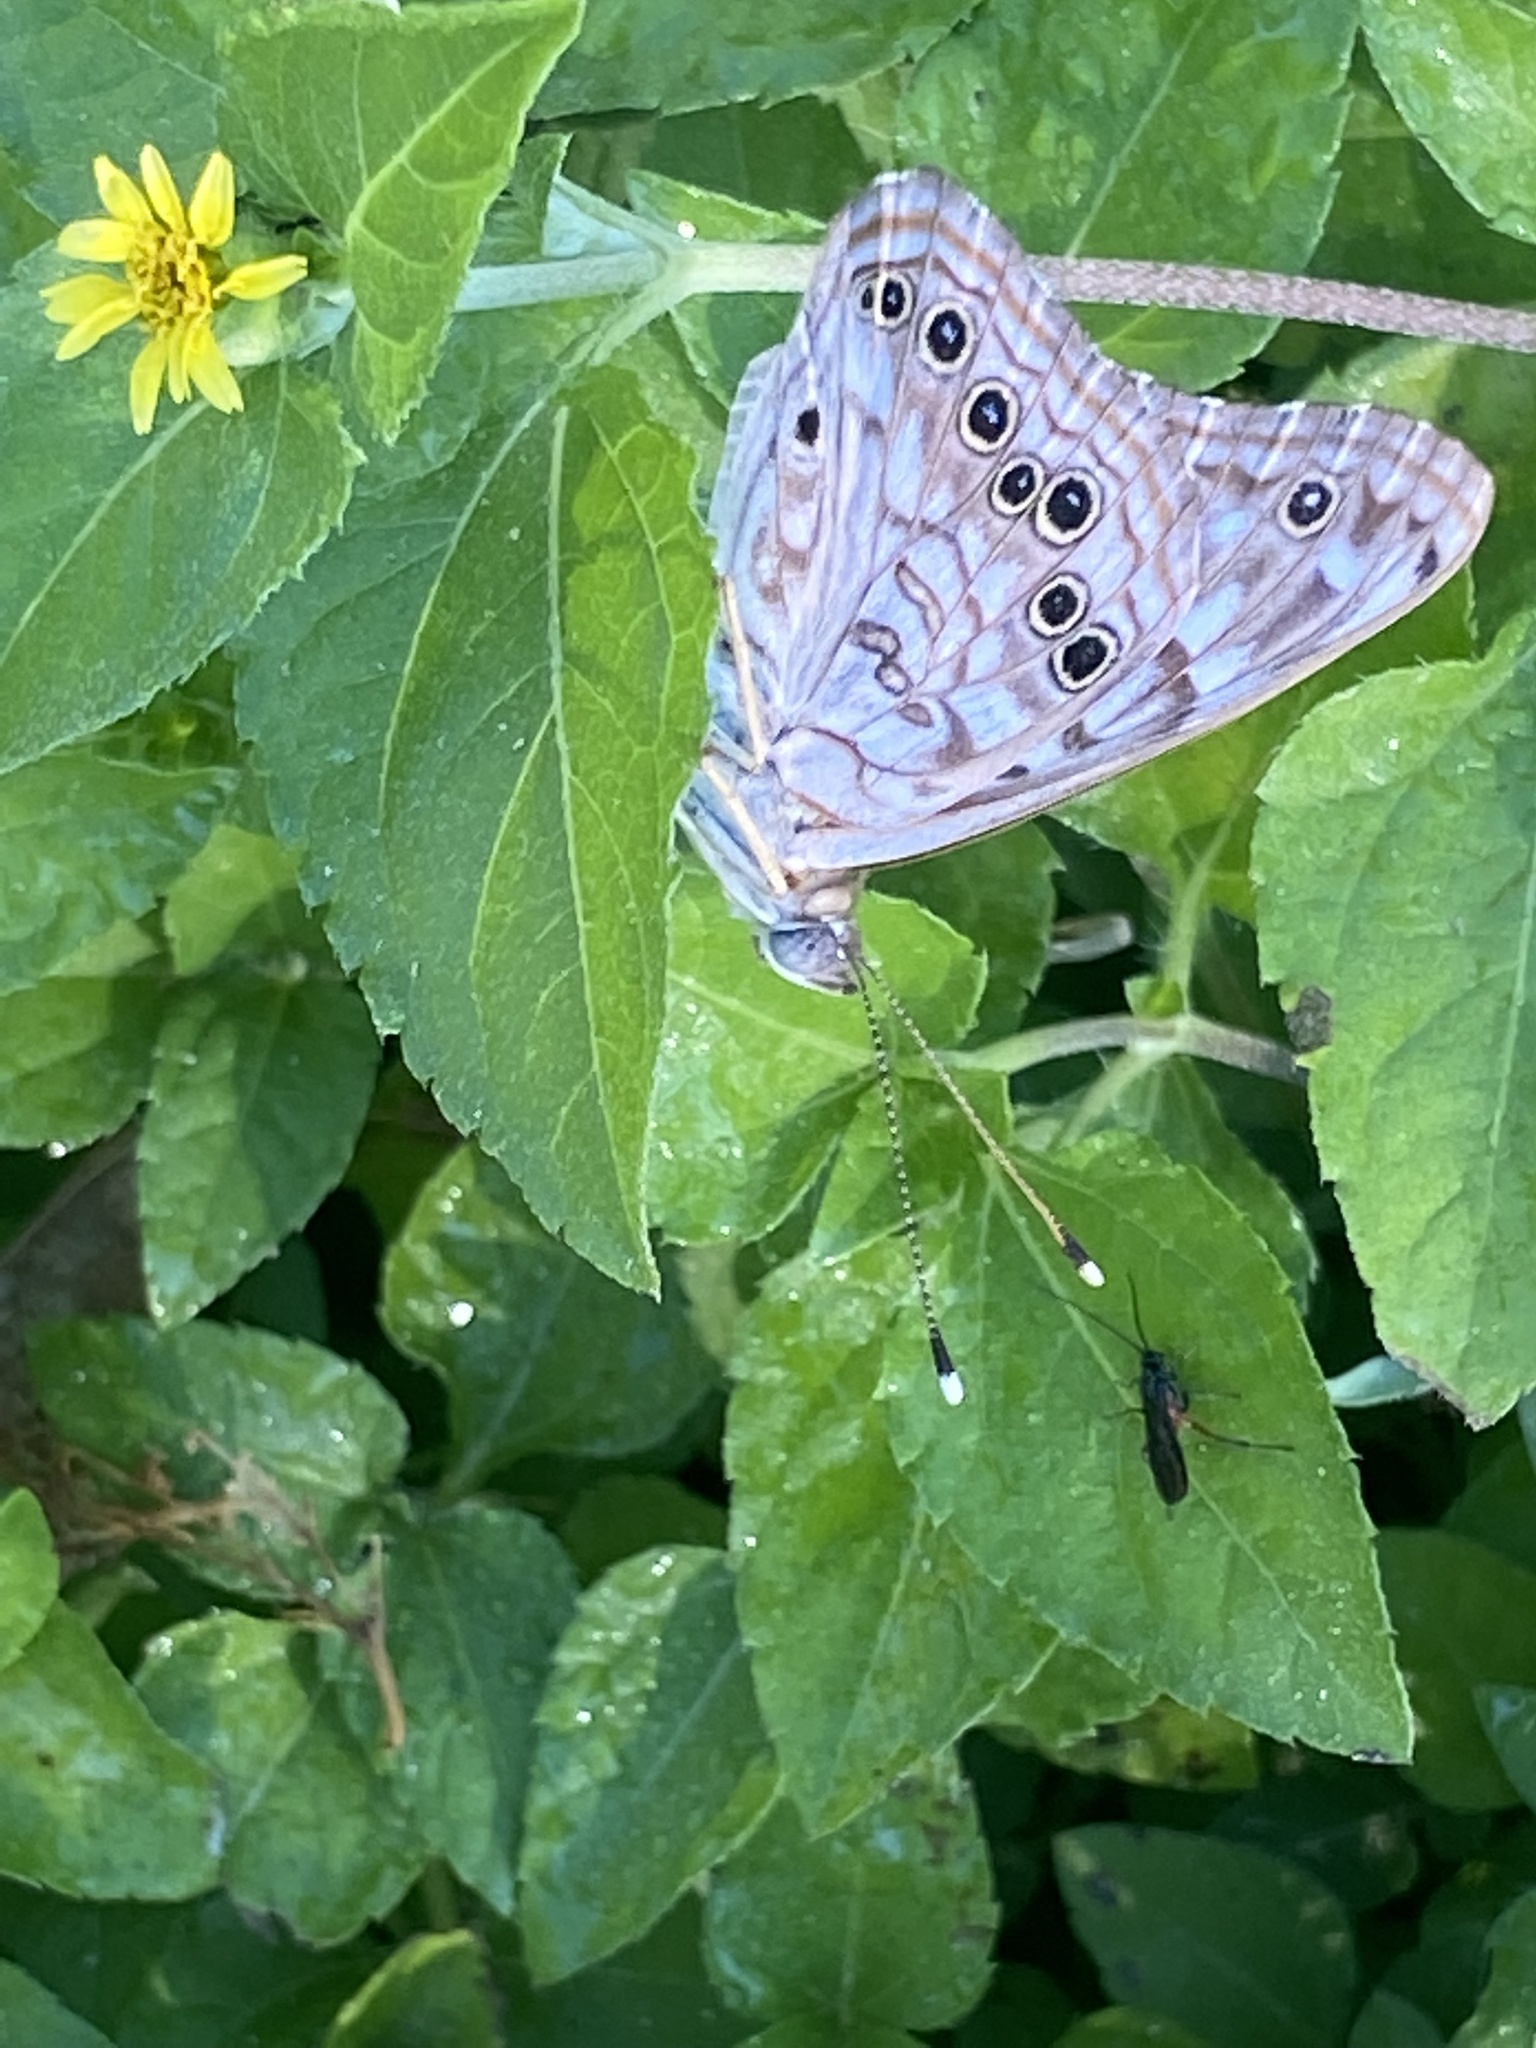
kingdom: Animalia
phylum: Arthropoda
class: Insecta
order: Lepidoptera
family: Nymphalidae
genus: Asterocampa
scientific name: Asterocampa celtis
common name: Hackberry emperor
